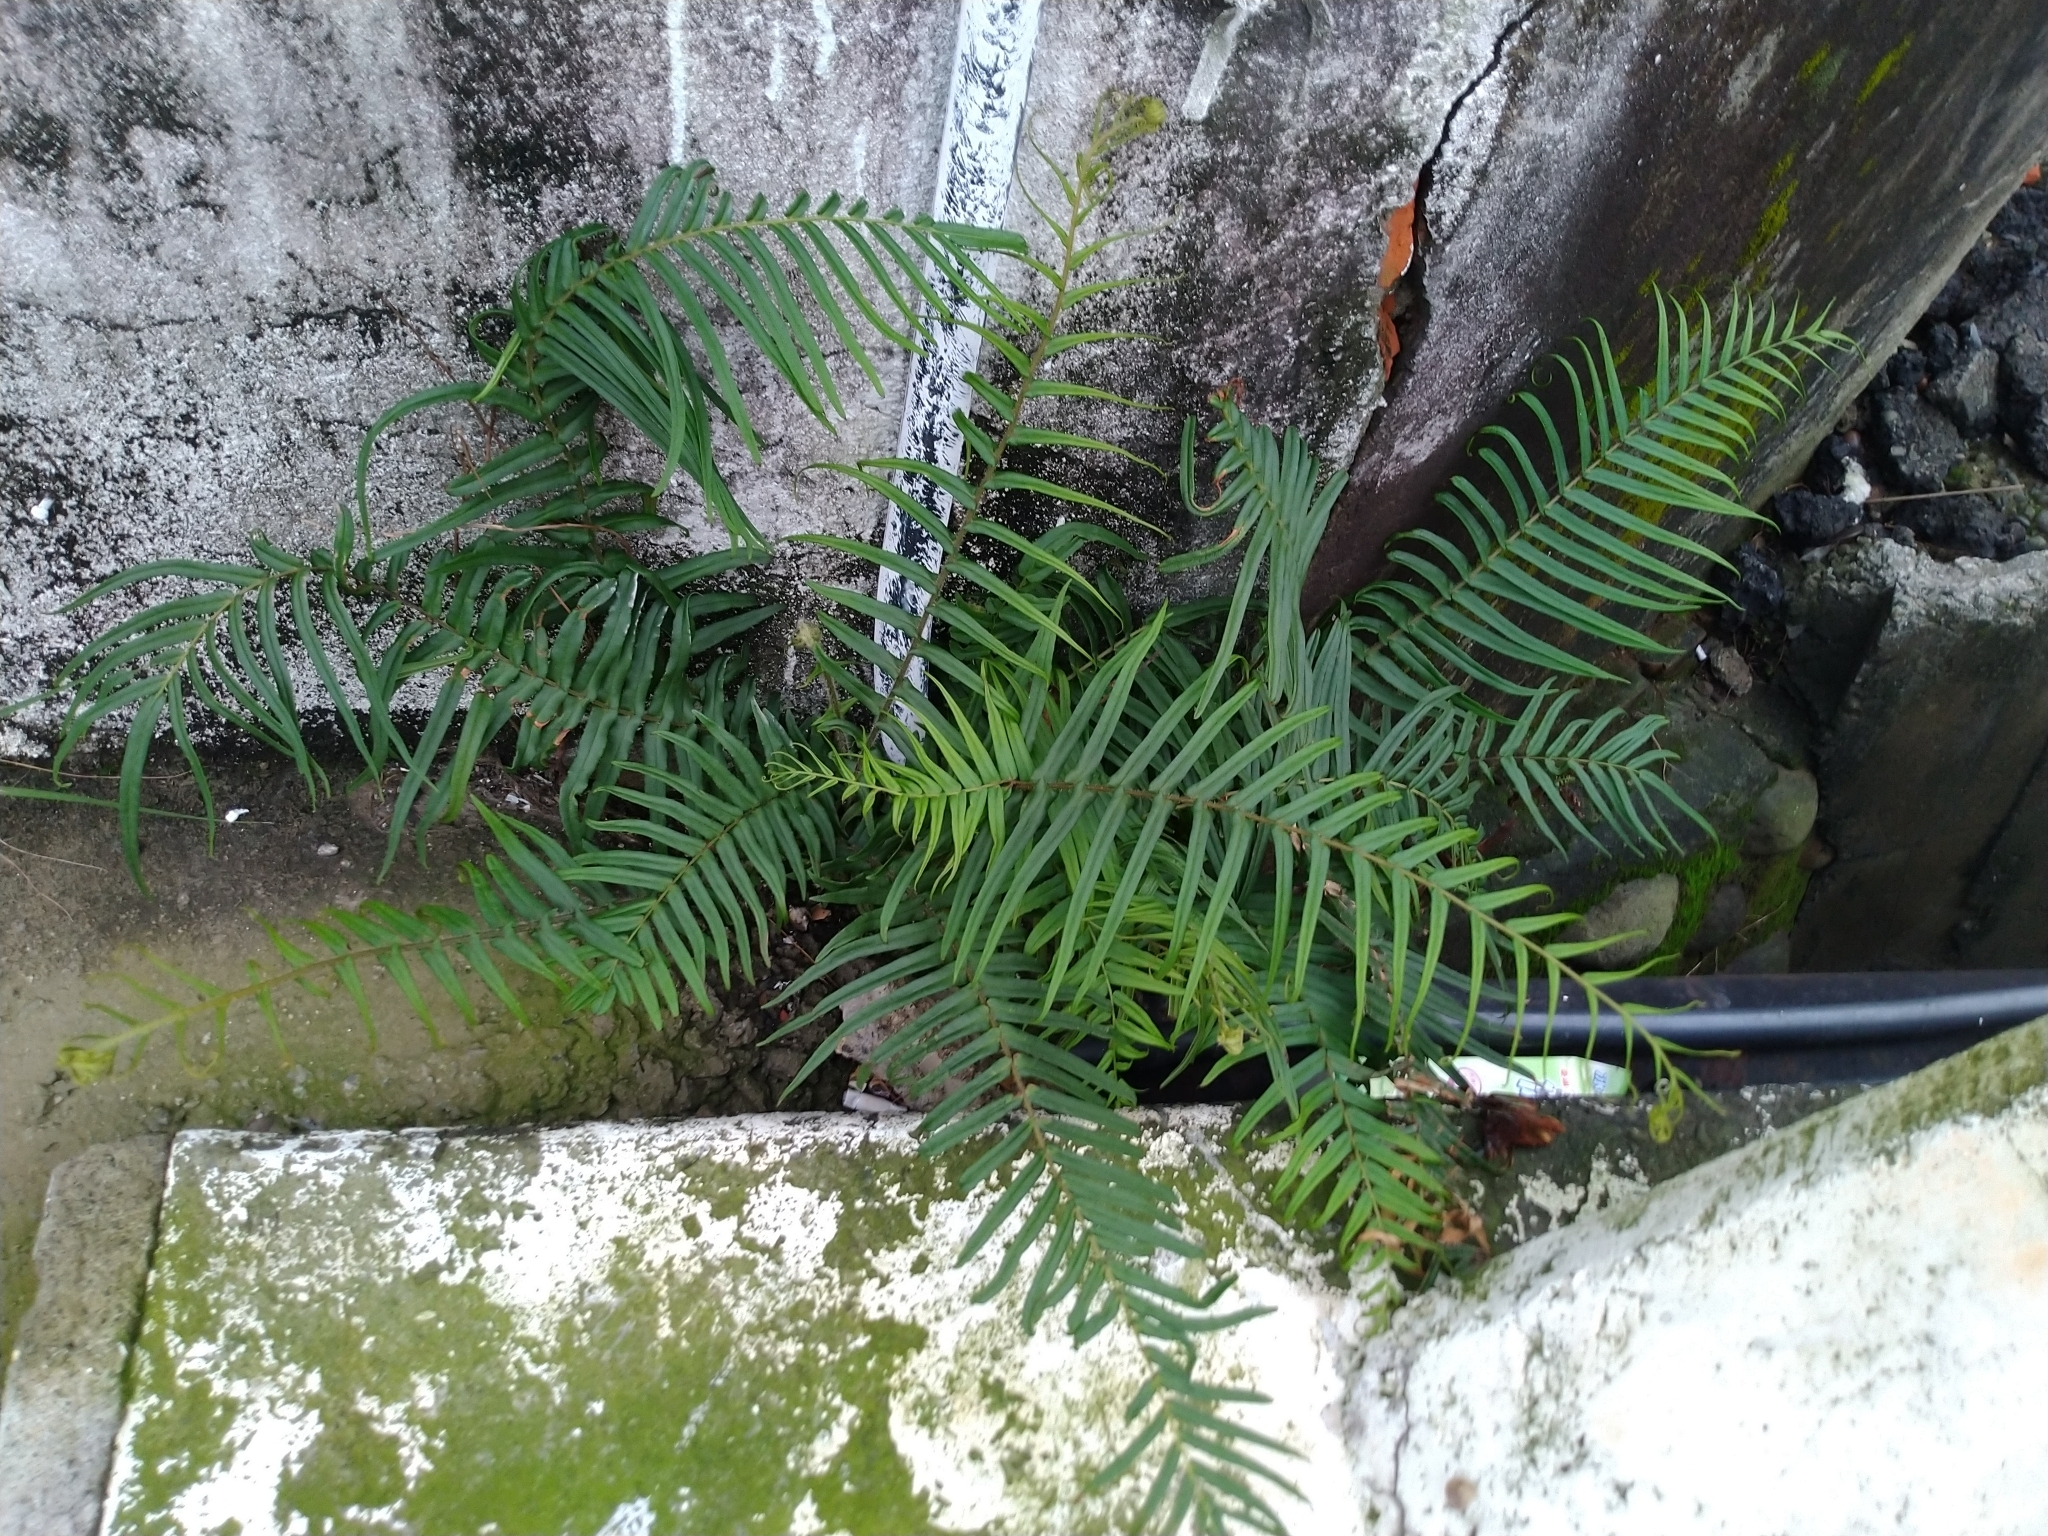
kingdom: Plantae
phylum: Tracheophyta
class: Polypodiopsida
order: Polypodiales
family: Pteridaceae
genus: Pteris
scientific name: Pteris vittata
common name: Ladder brake
